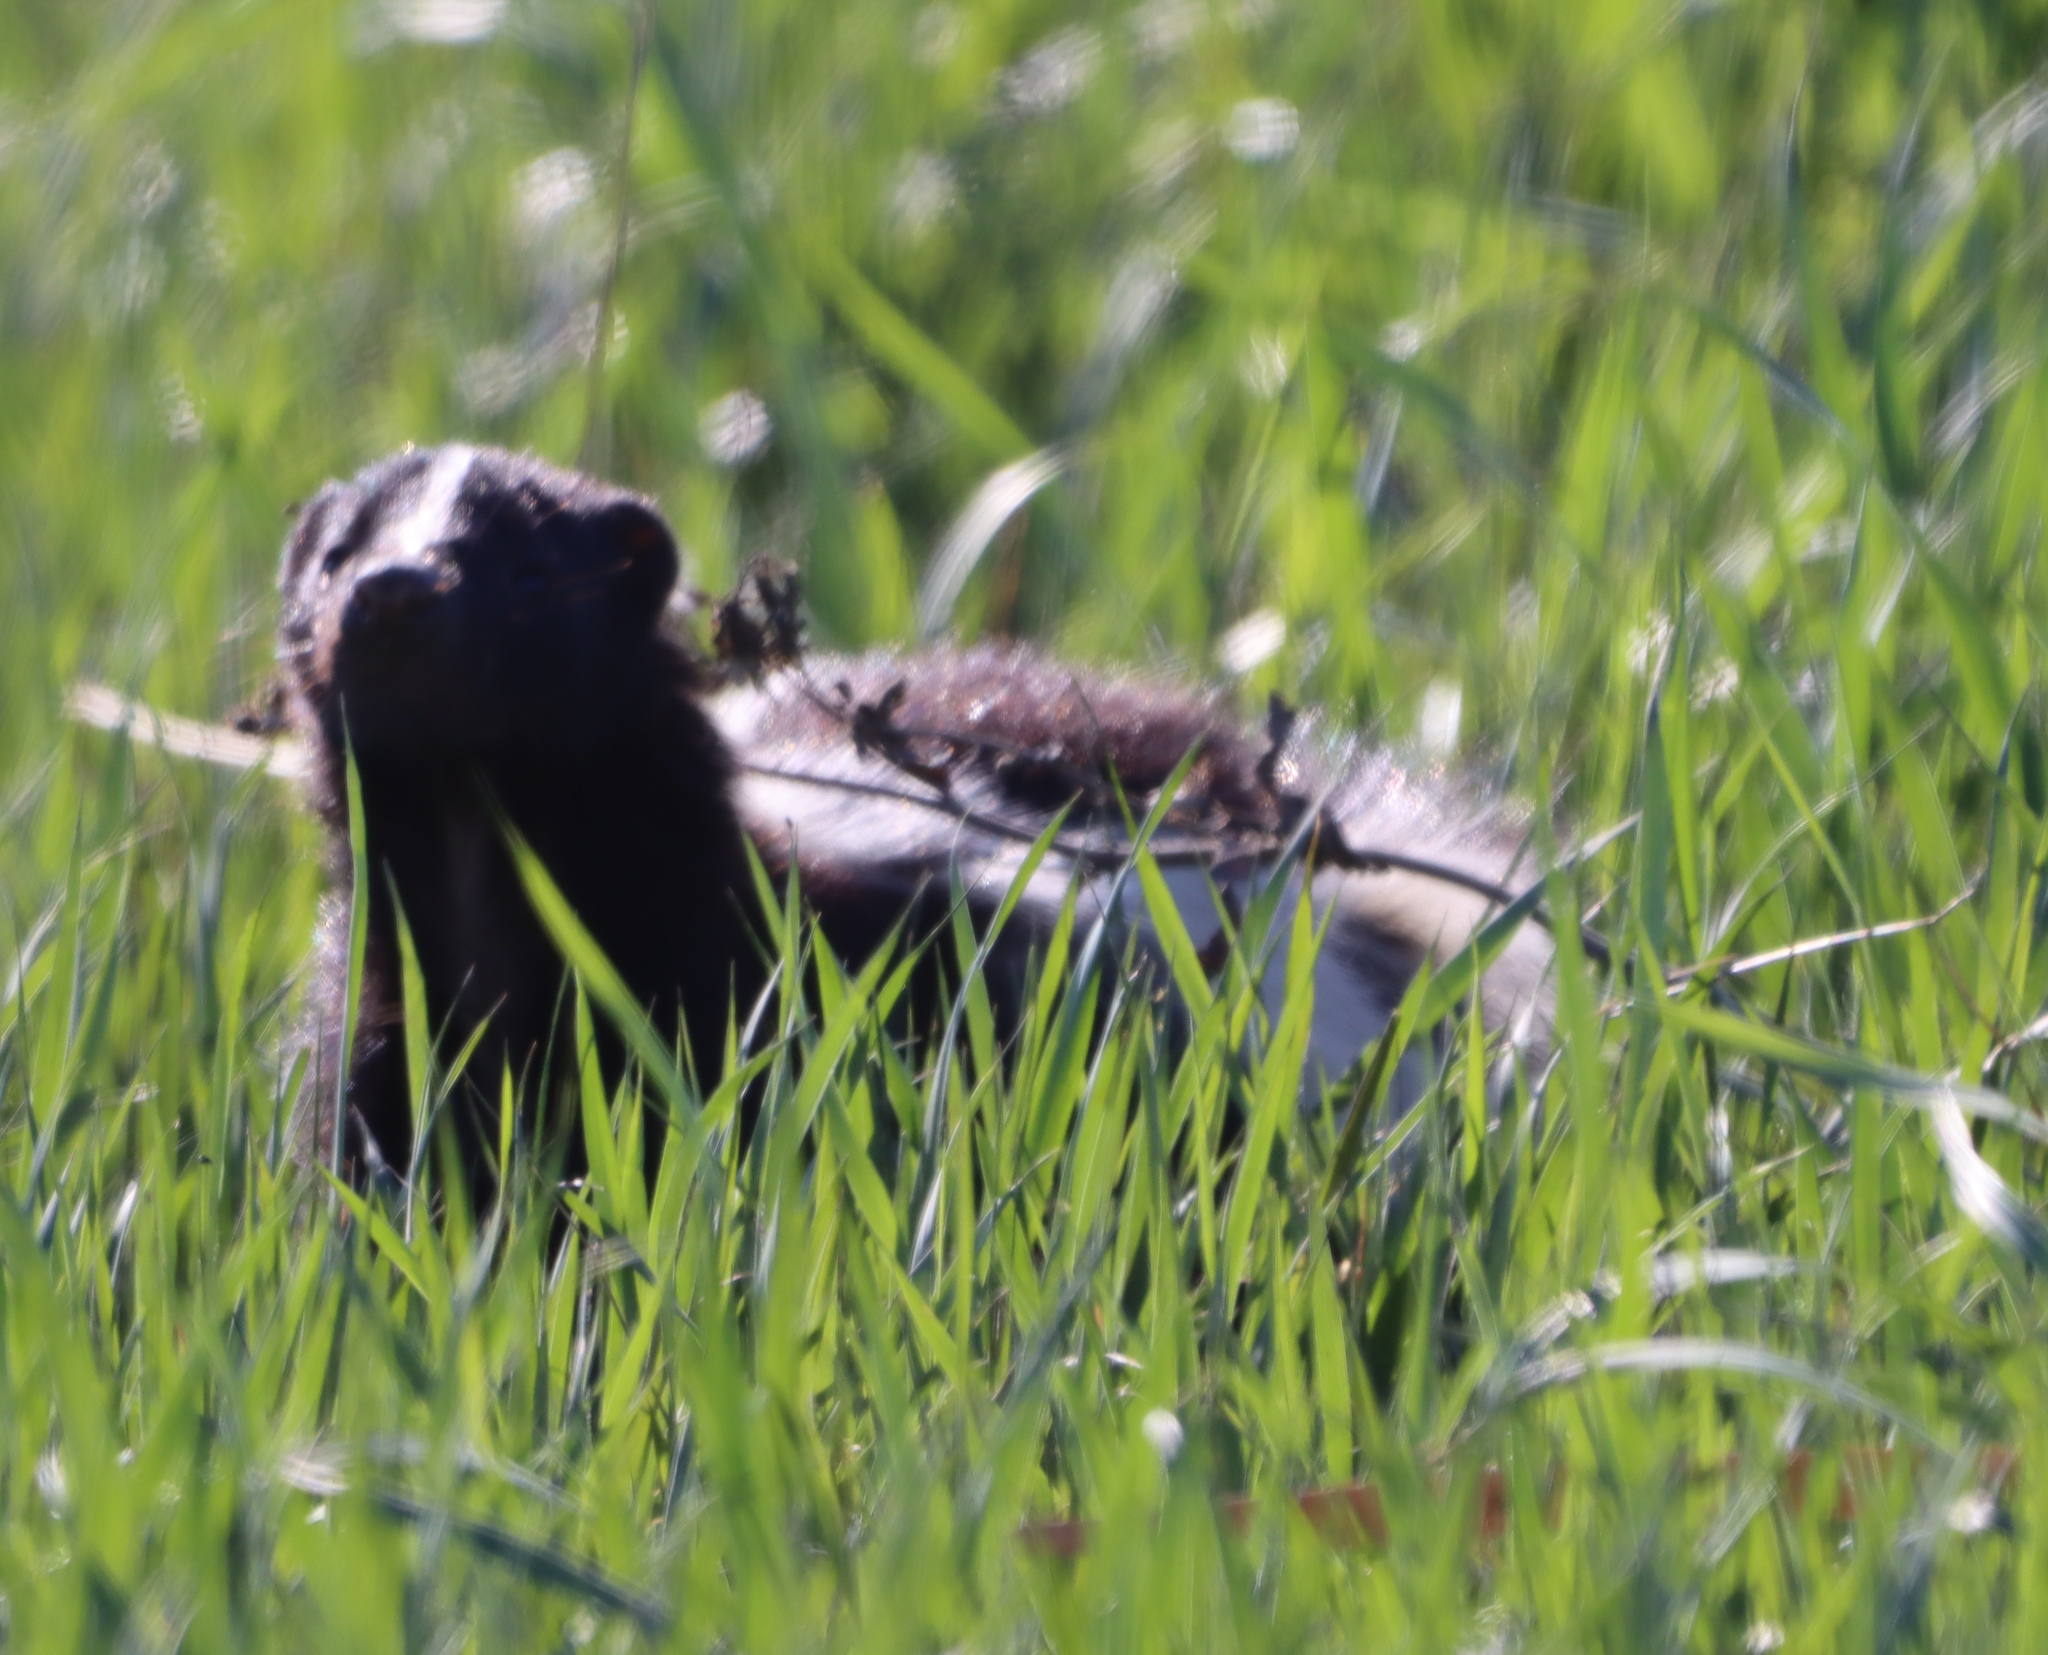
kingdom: Animalia
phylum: Chordata
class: Mammalia
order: Carnivora
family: Mephitidae
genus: Mephitis
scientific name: Mephitis mephitis
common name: Striped skunk
